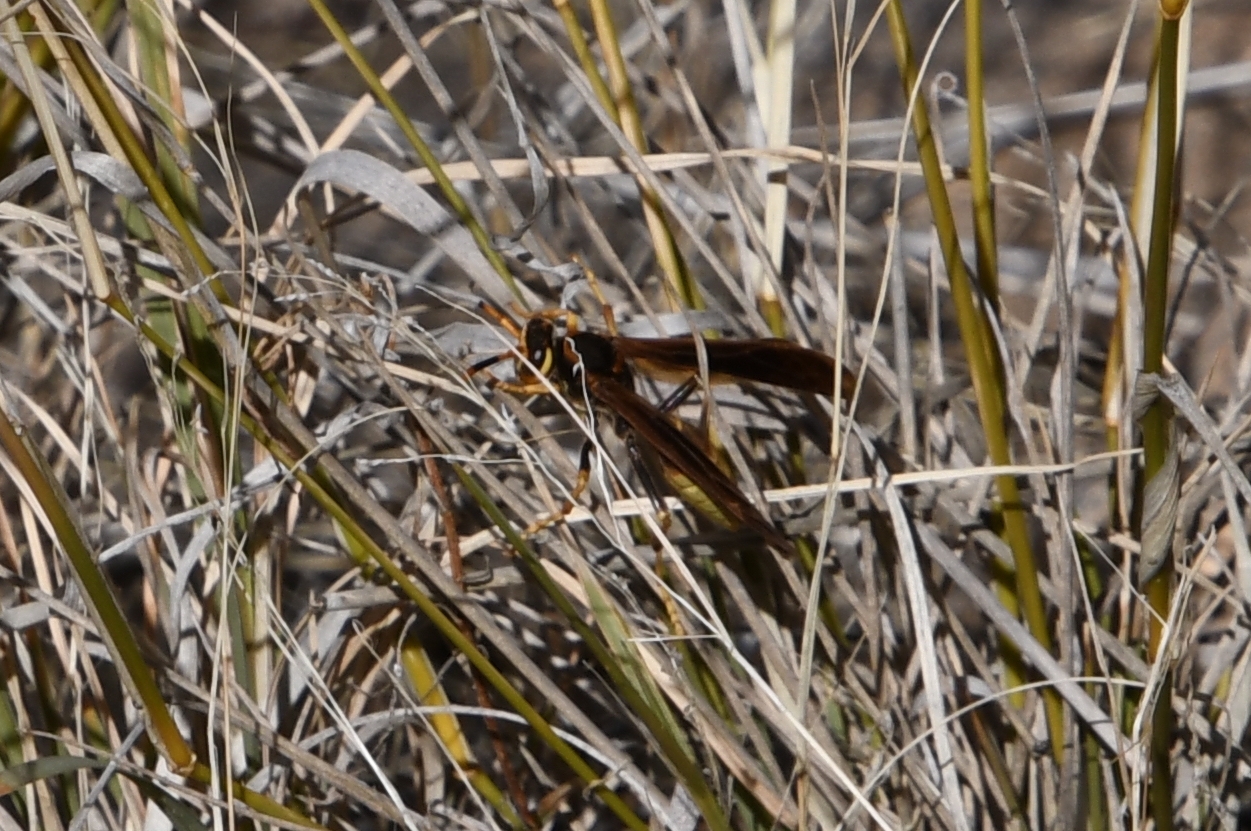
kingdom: Animalia
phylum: Arthropoda
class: Insecta
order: Hymenoptera
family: Eumenidae
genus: Polistes
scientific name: Polistes comanchus
